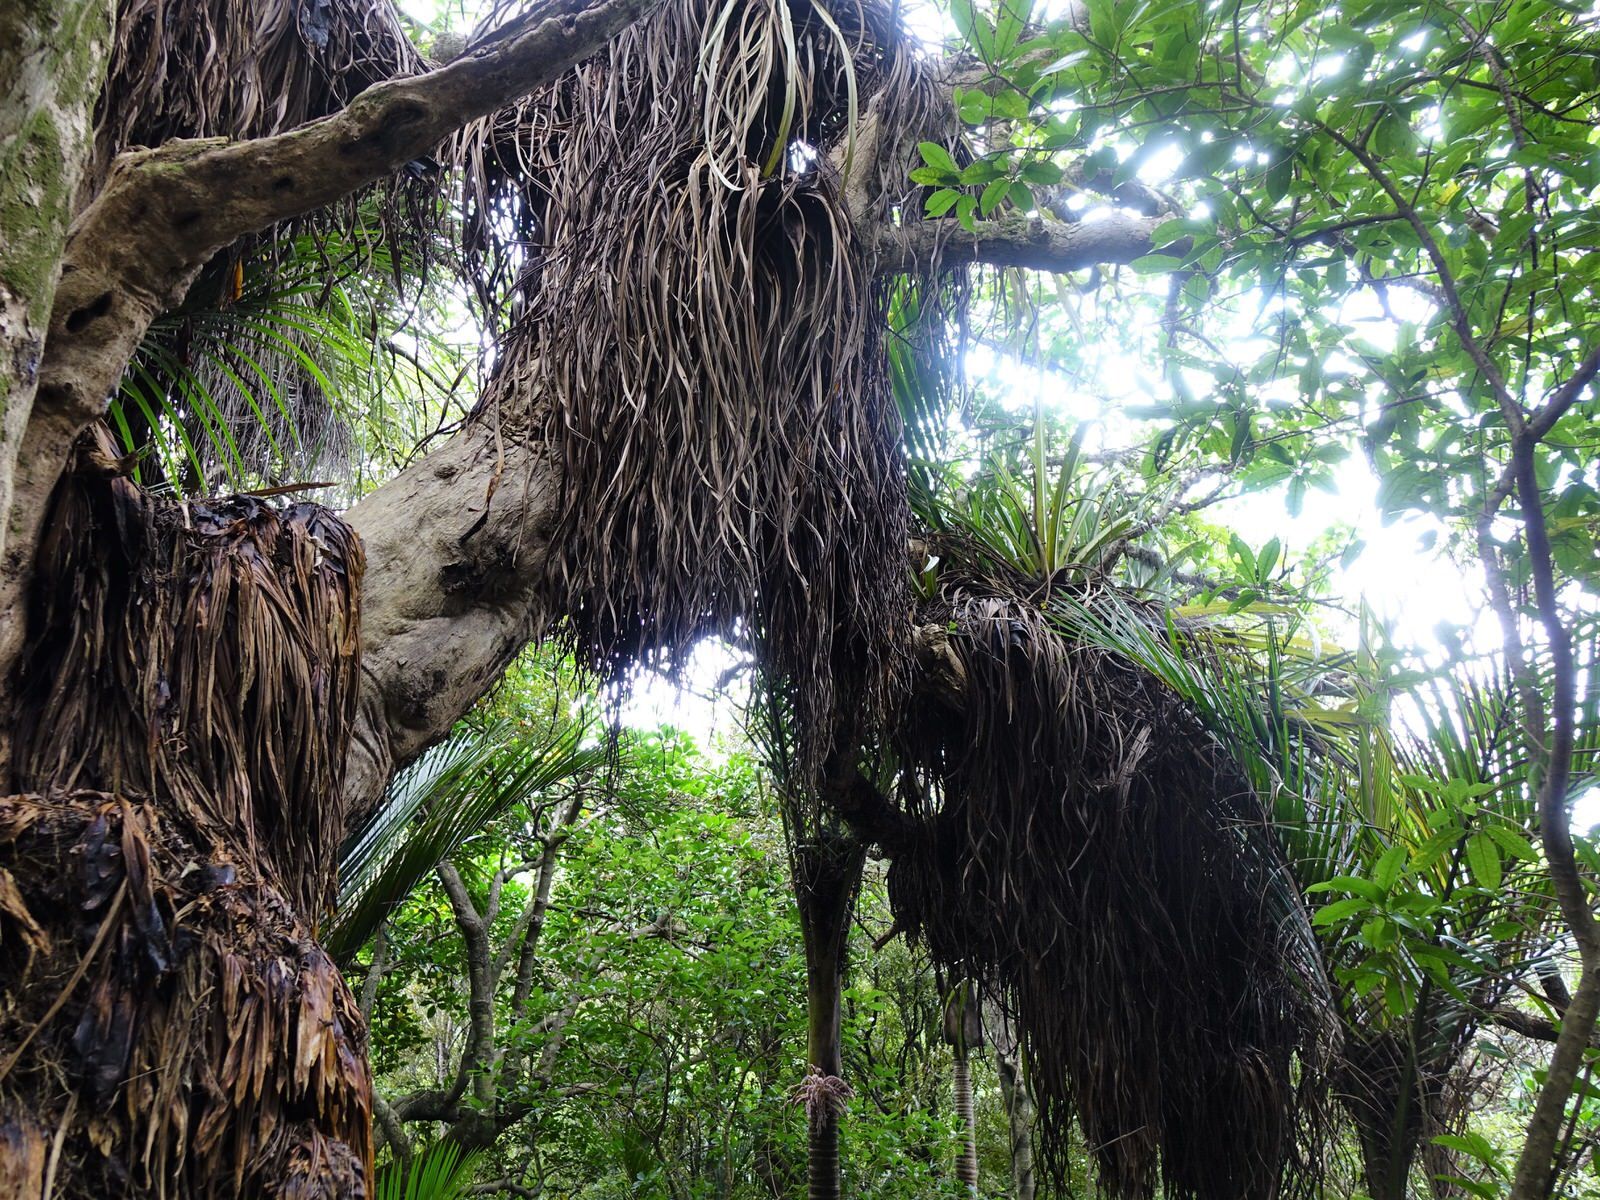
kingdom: Plantae
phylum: Tracheophyta
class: Liliopsida
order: Asparagales
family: Asteliaceae
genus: Astelia
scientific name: Astelia hastata
